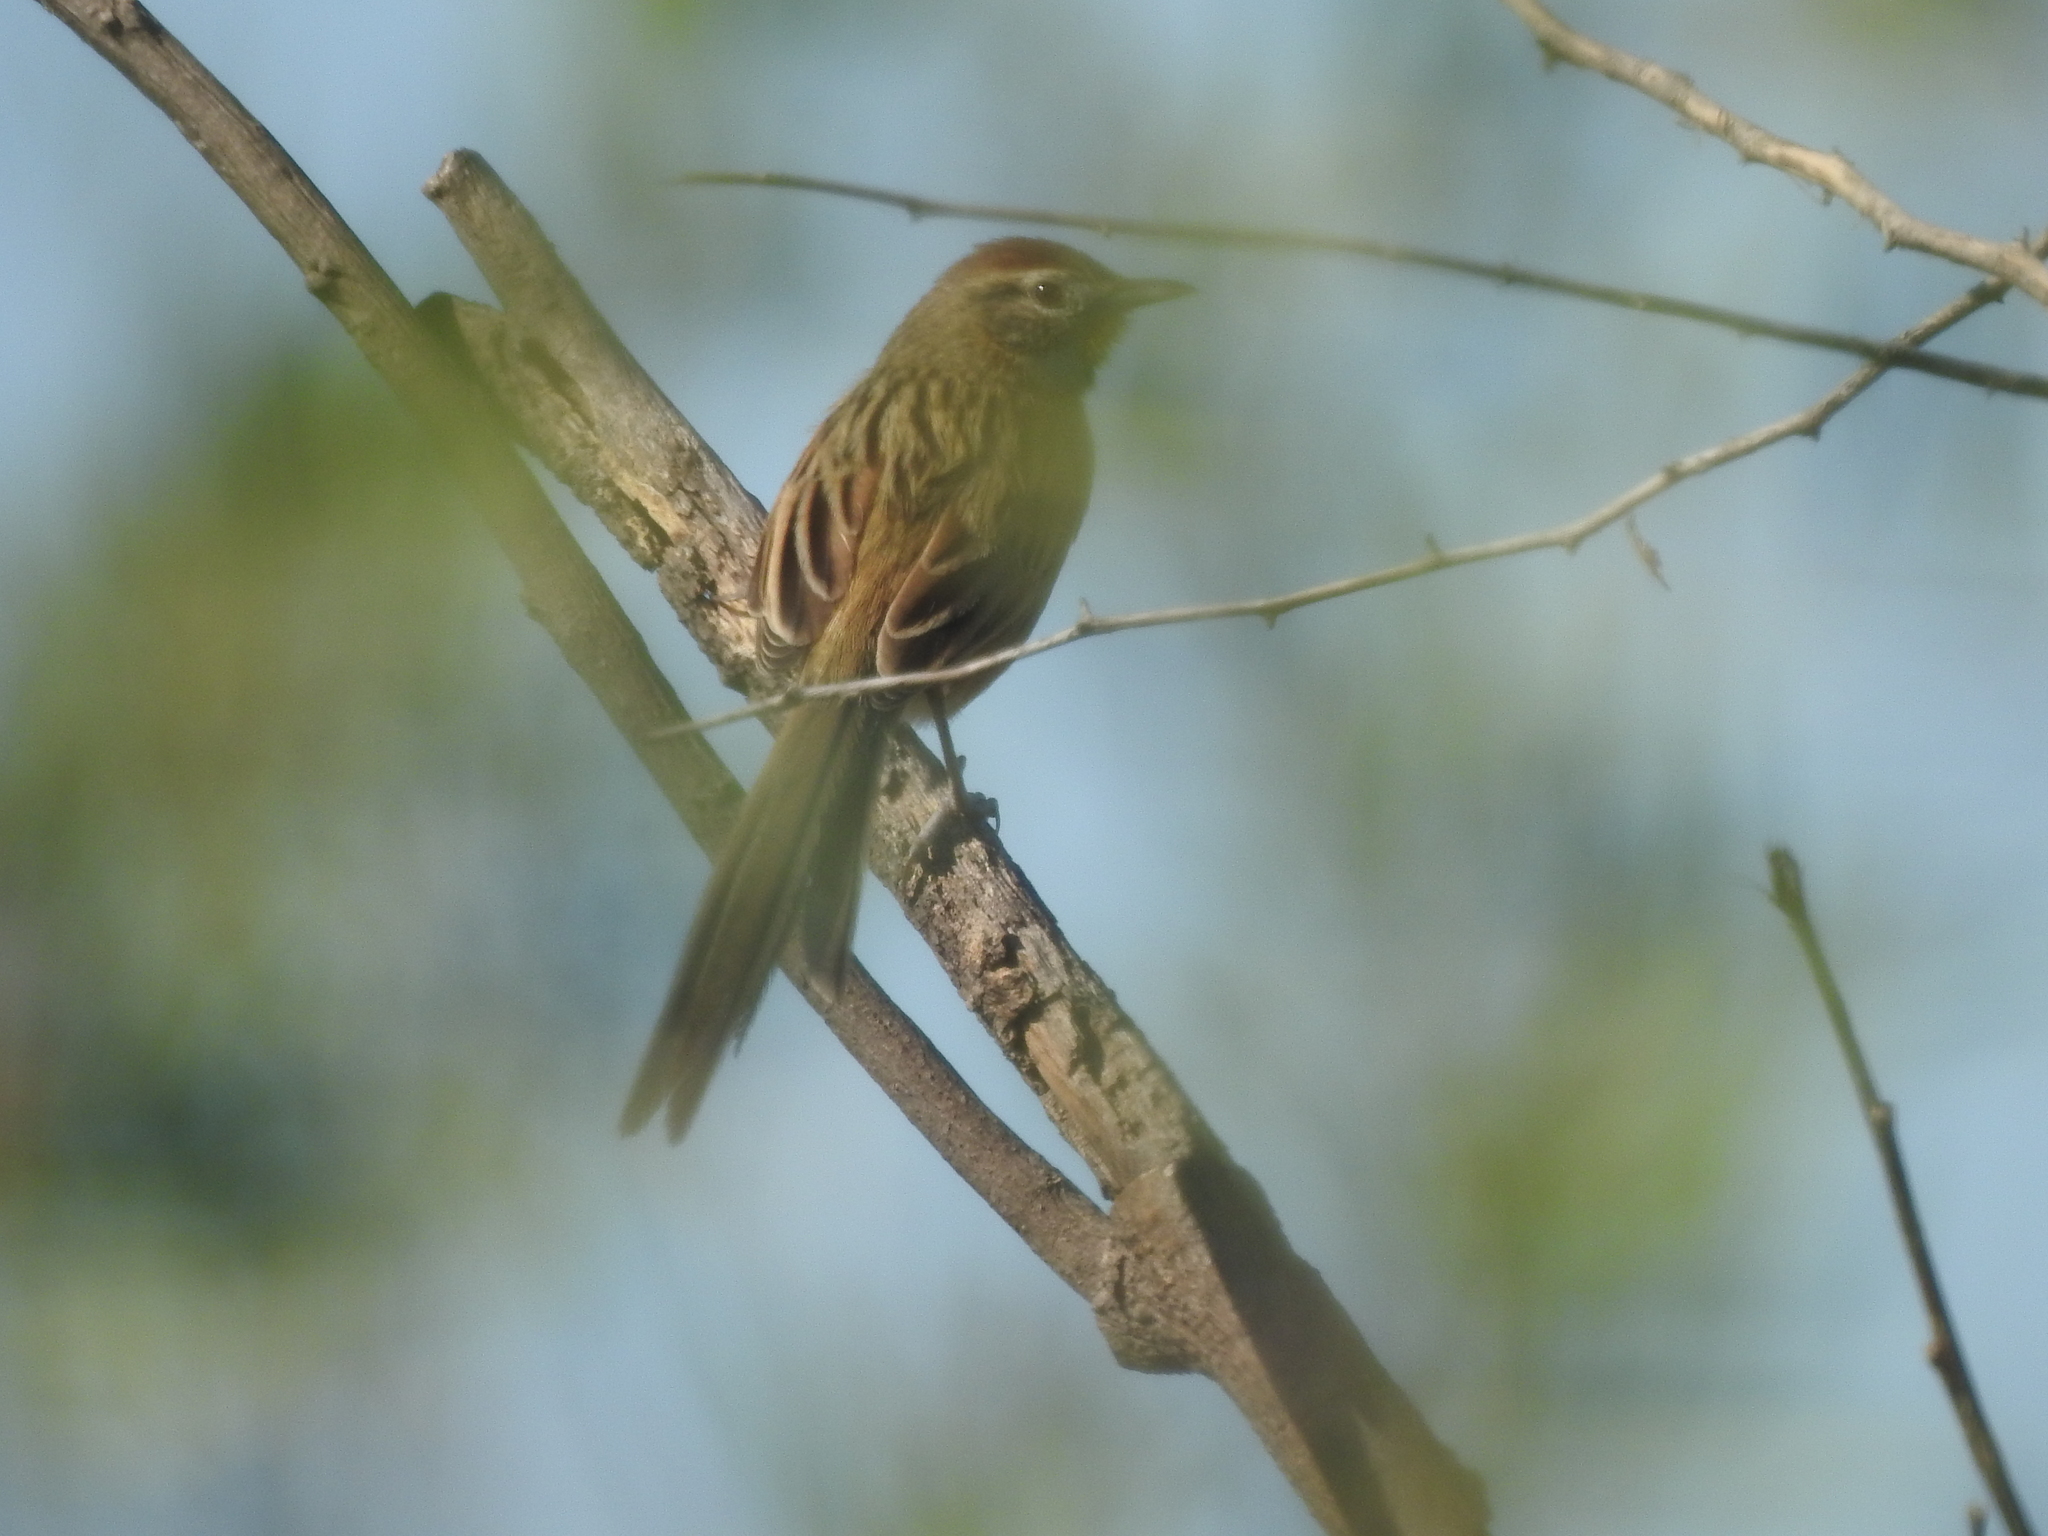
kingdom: Animalia
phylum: Chordata
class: Aves
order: Passeriformes
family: Furnariidae
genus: Schoeniophylax
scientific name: Schoeniophylax phryganophilus
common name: Chotoy spinetail
